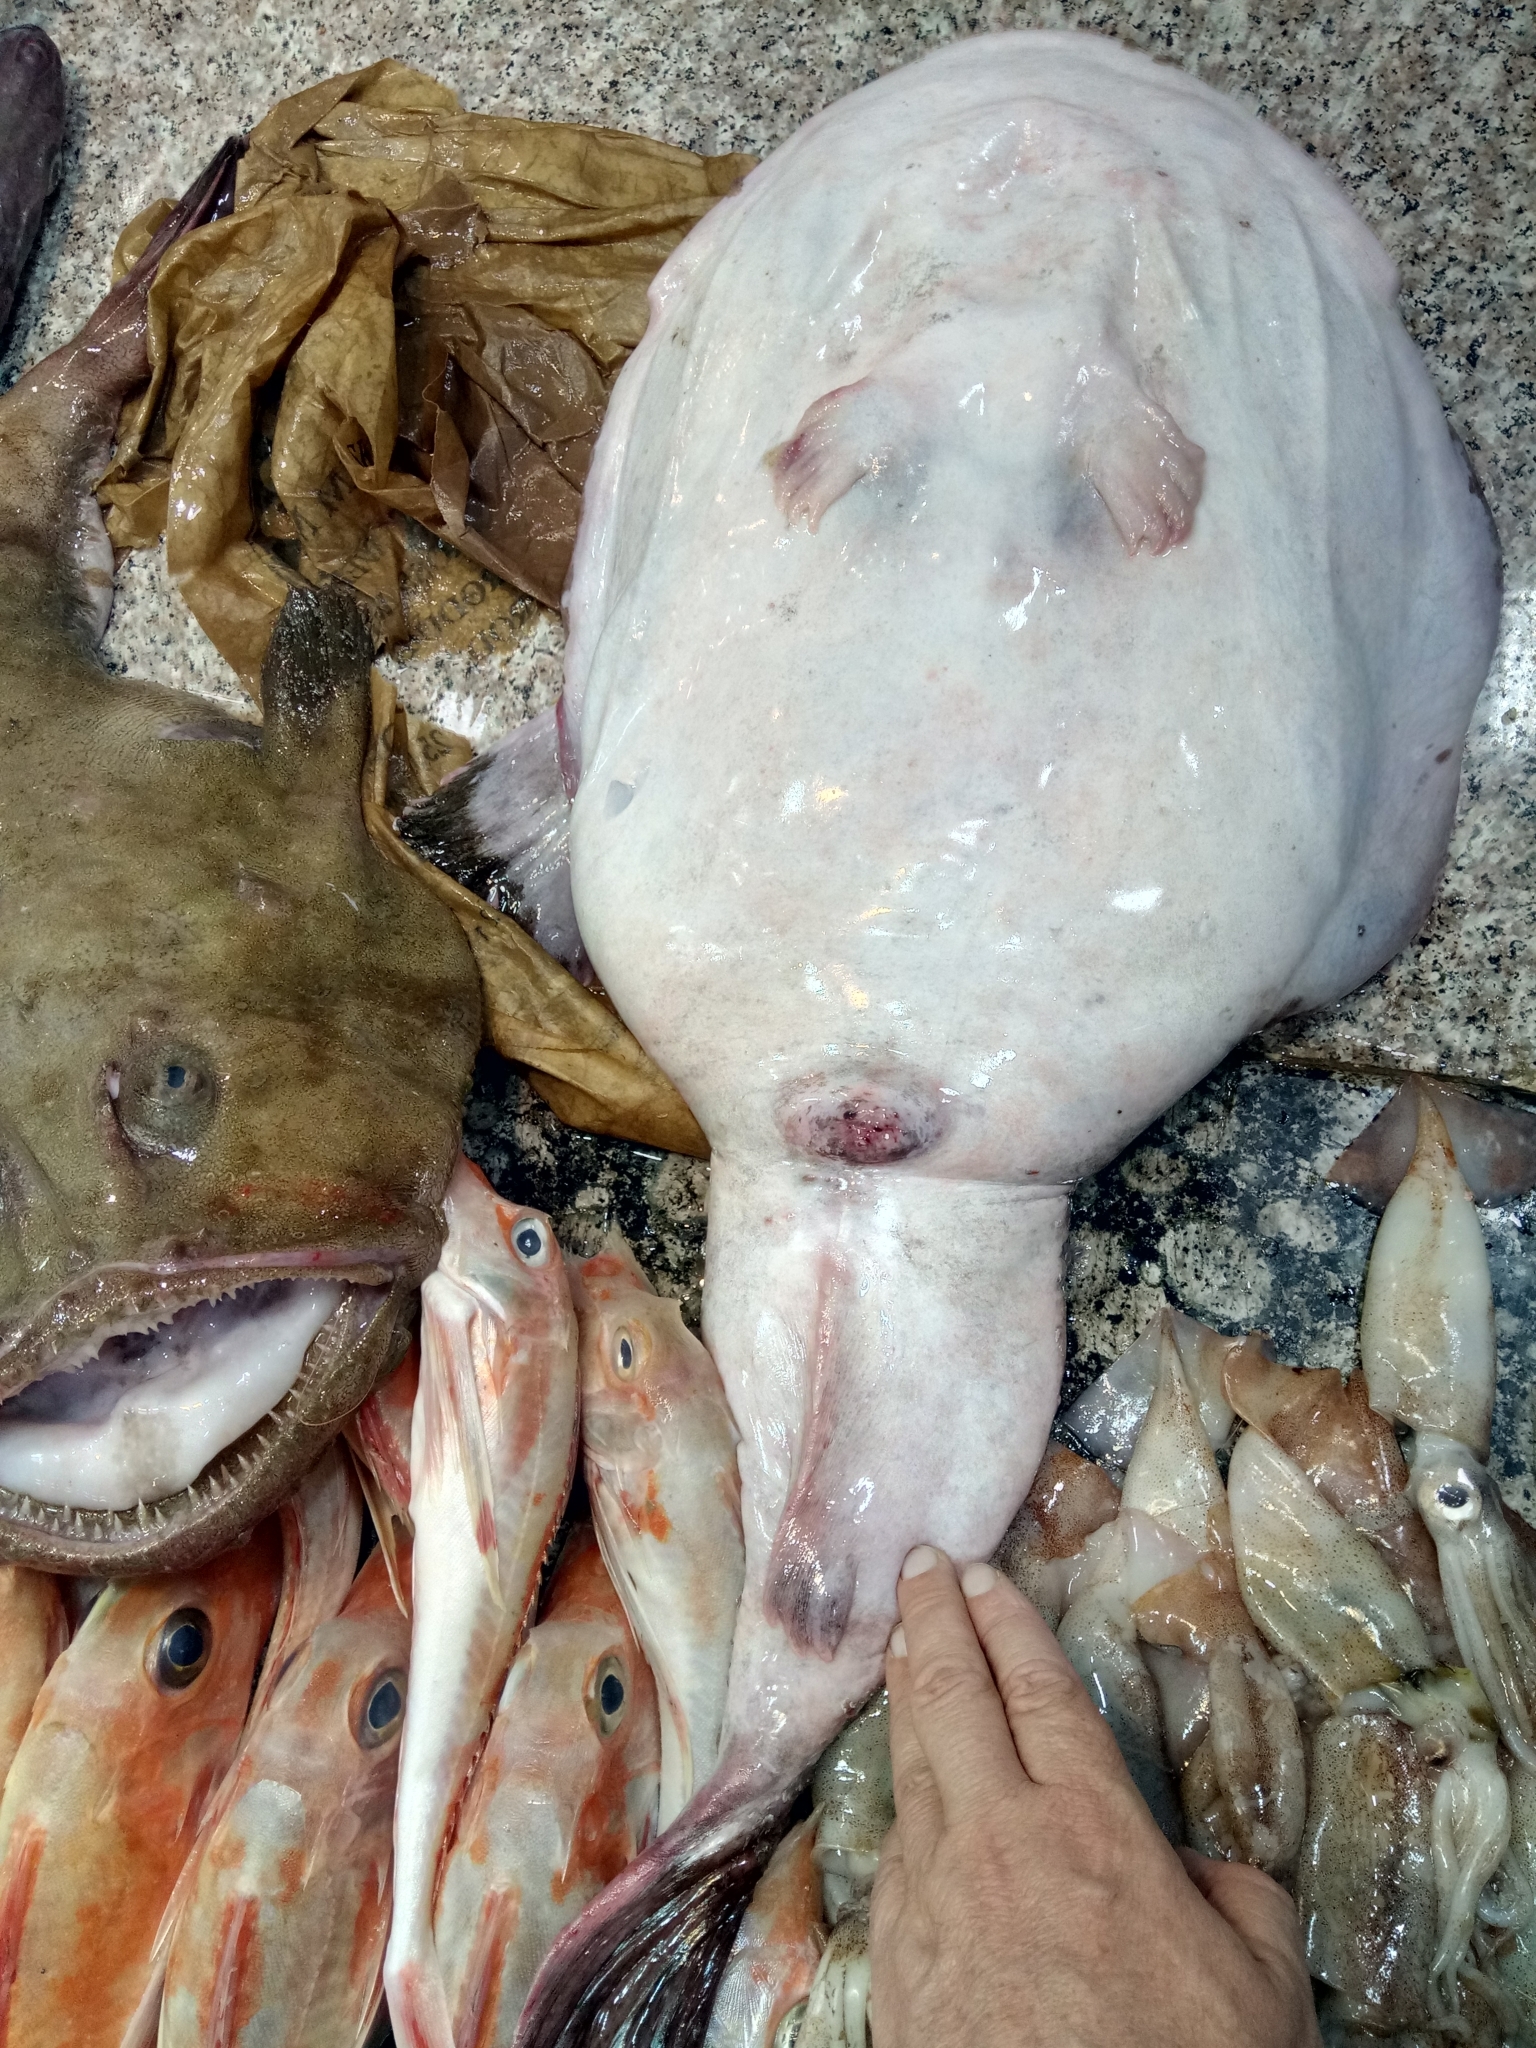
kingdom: Animalia
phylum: Chordata
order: Lophiiformes
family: Lophiidae
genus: Lophius
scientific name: Lophius budegassa
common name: Black-bellied angler
